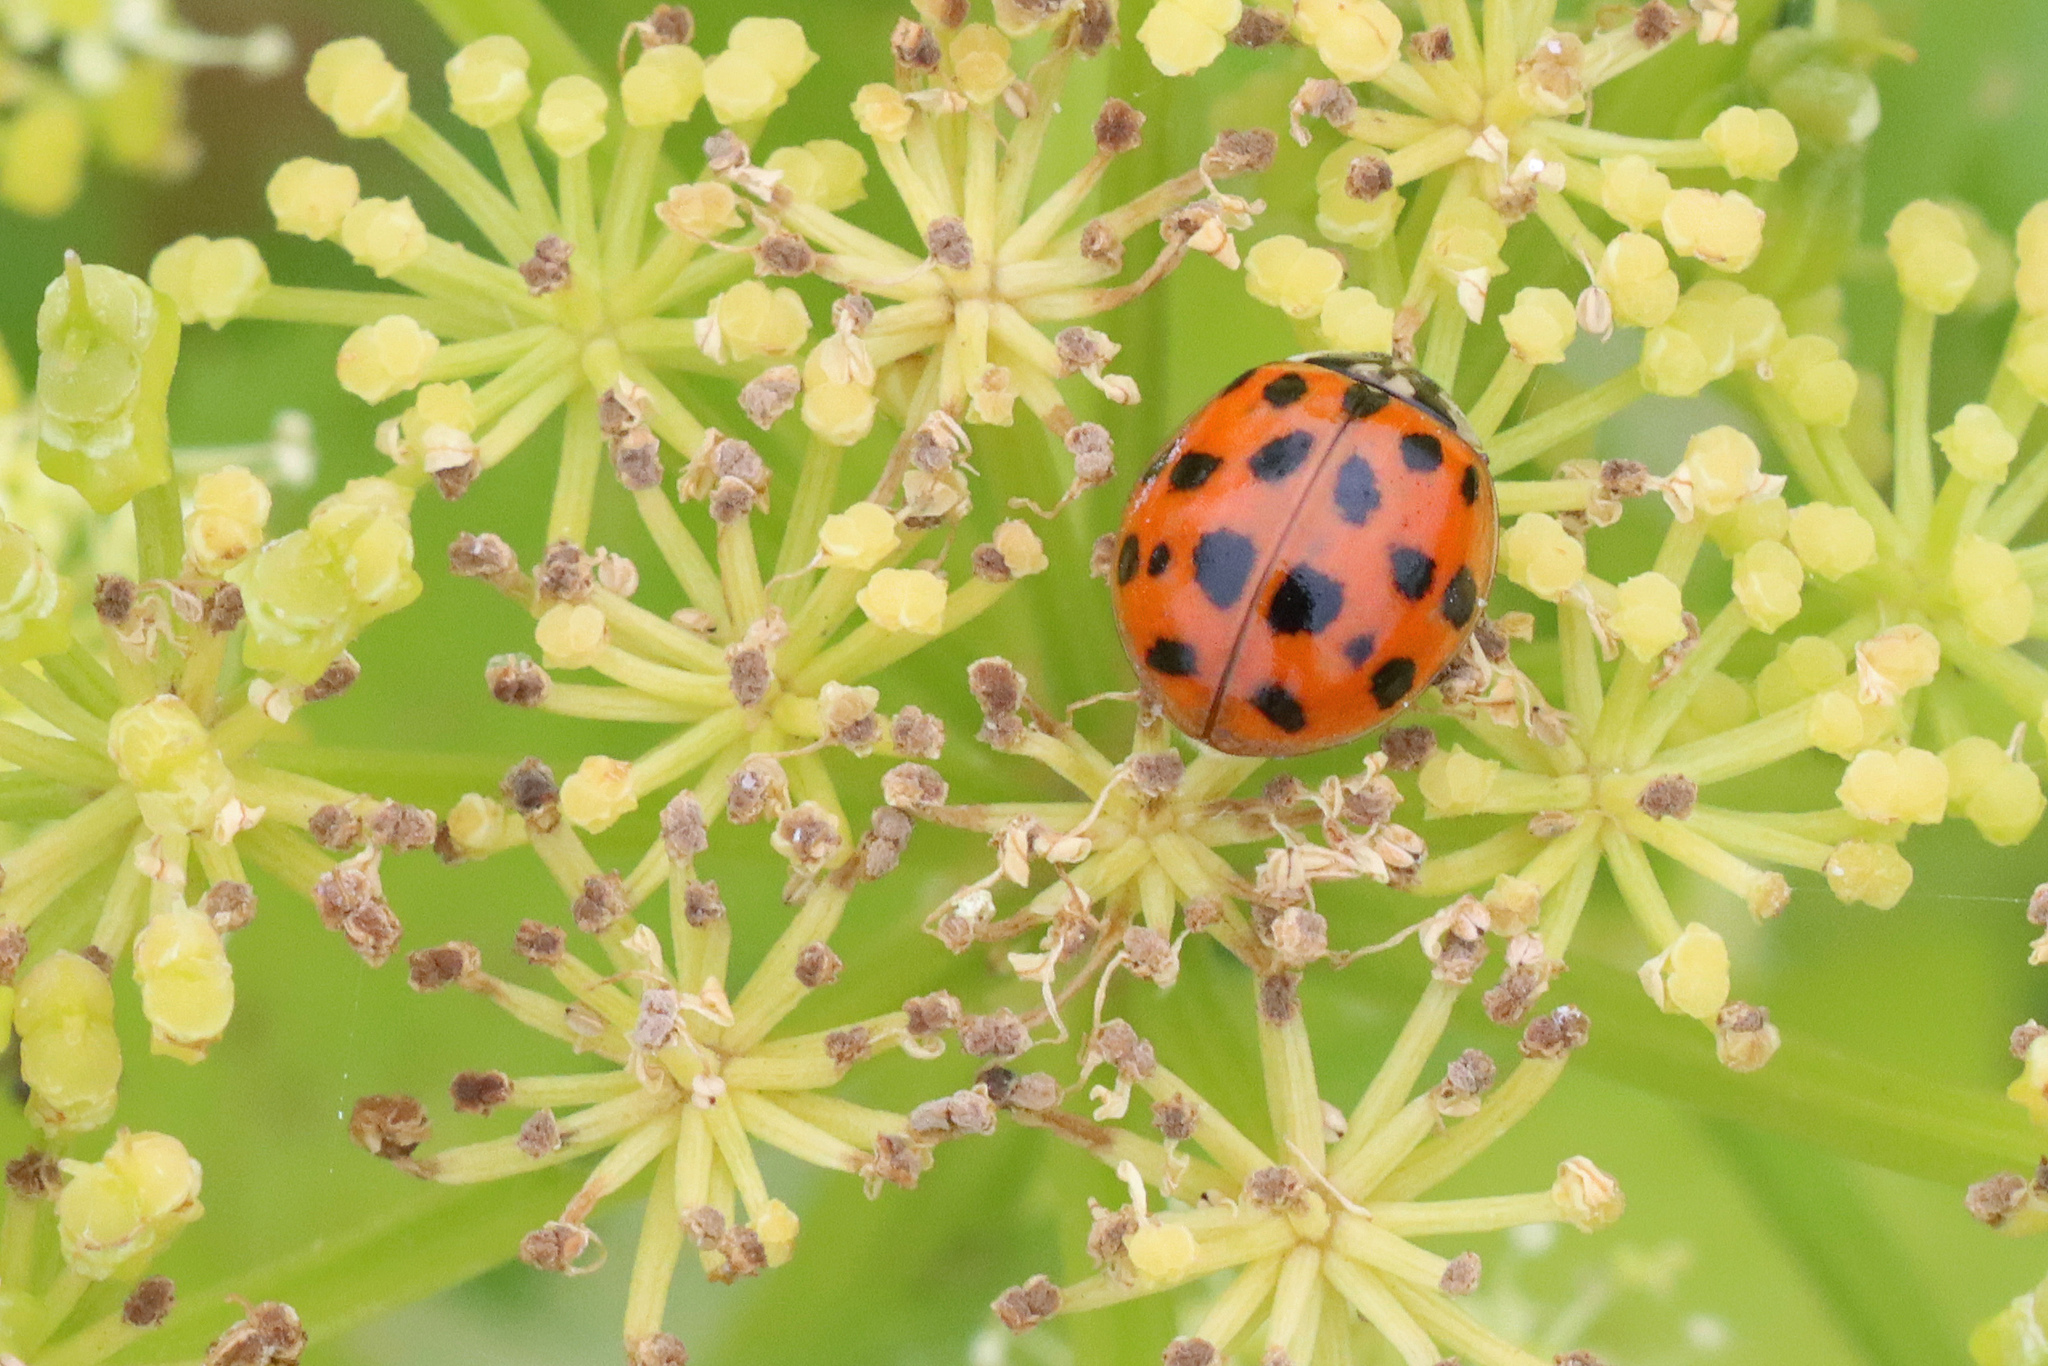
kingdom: Animalia
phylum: Arthropoda
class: Insecta
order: Coleoptera
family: Coccinellidae
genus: Harmonia
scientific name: Harmonia axyridis
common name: Harlequin ladybird
